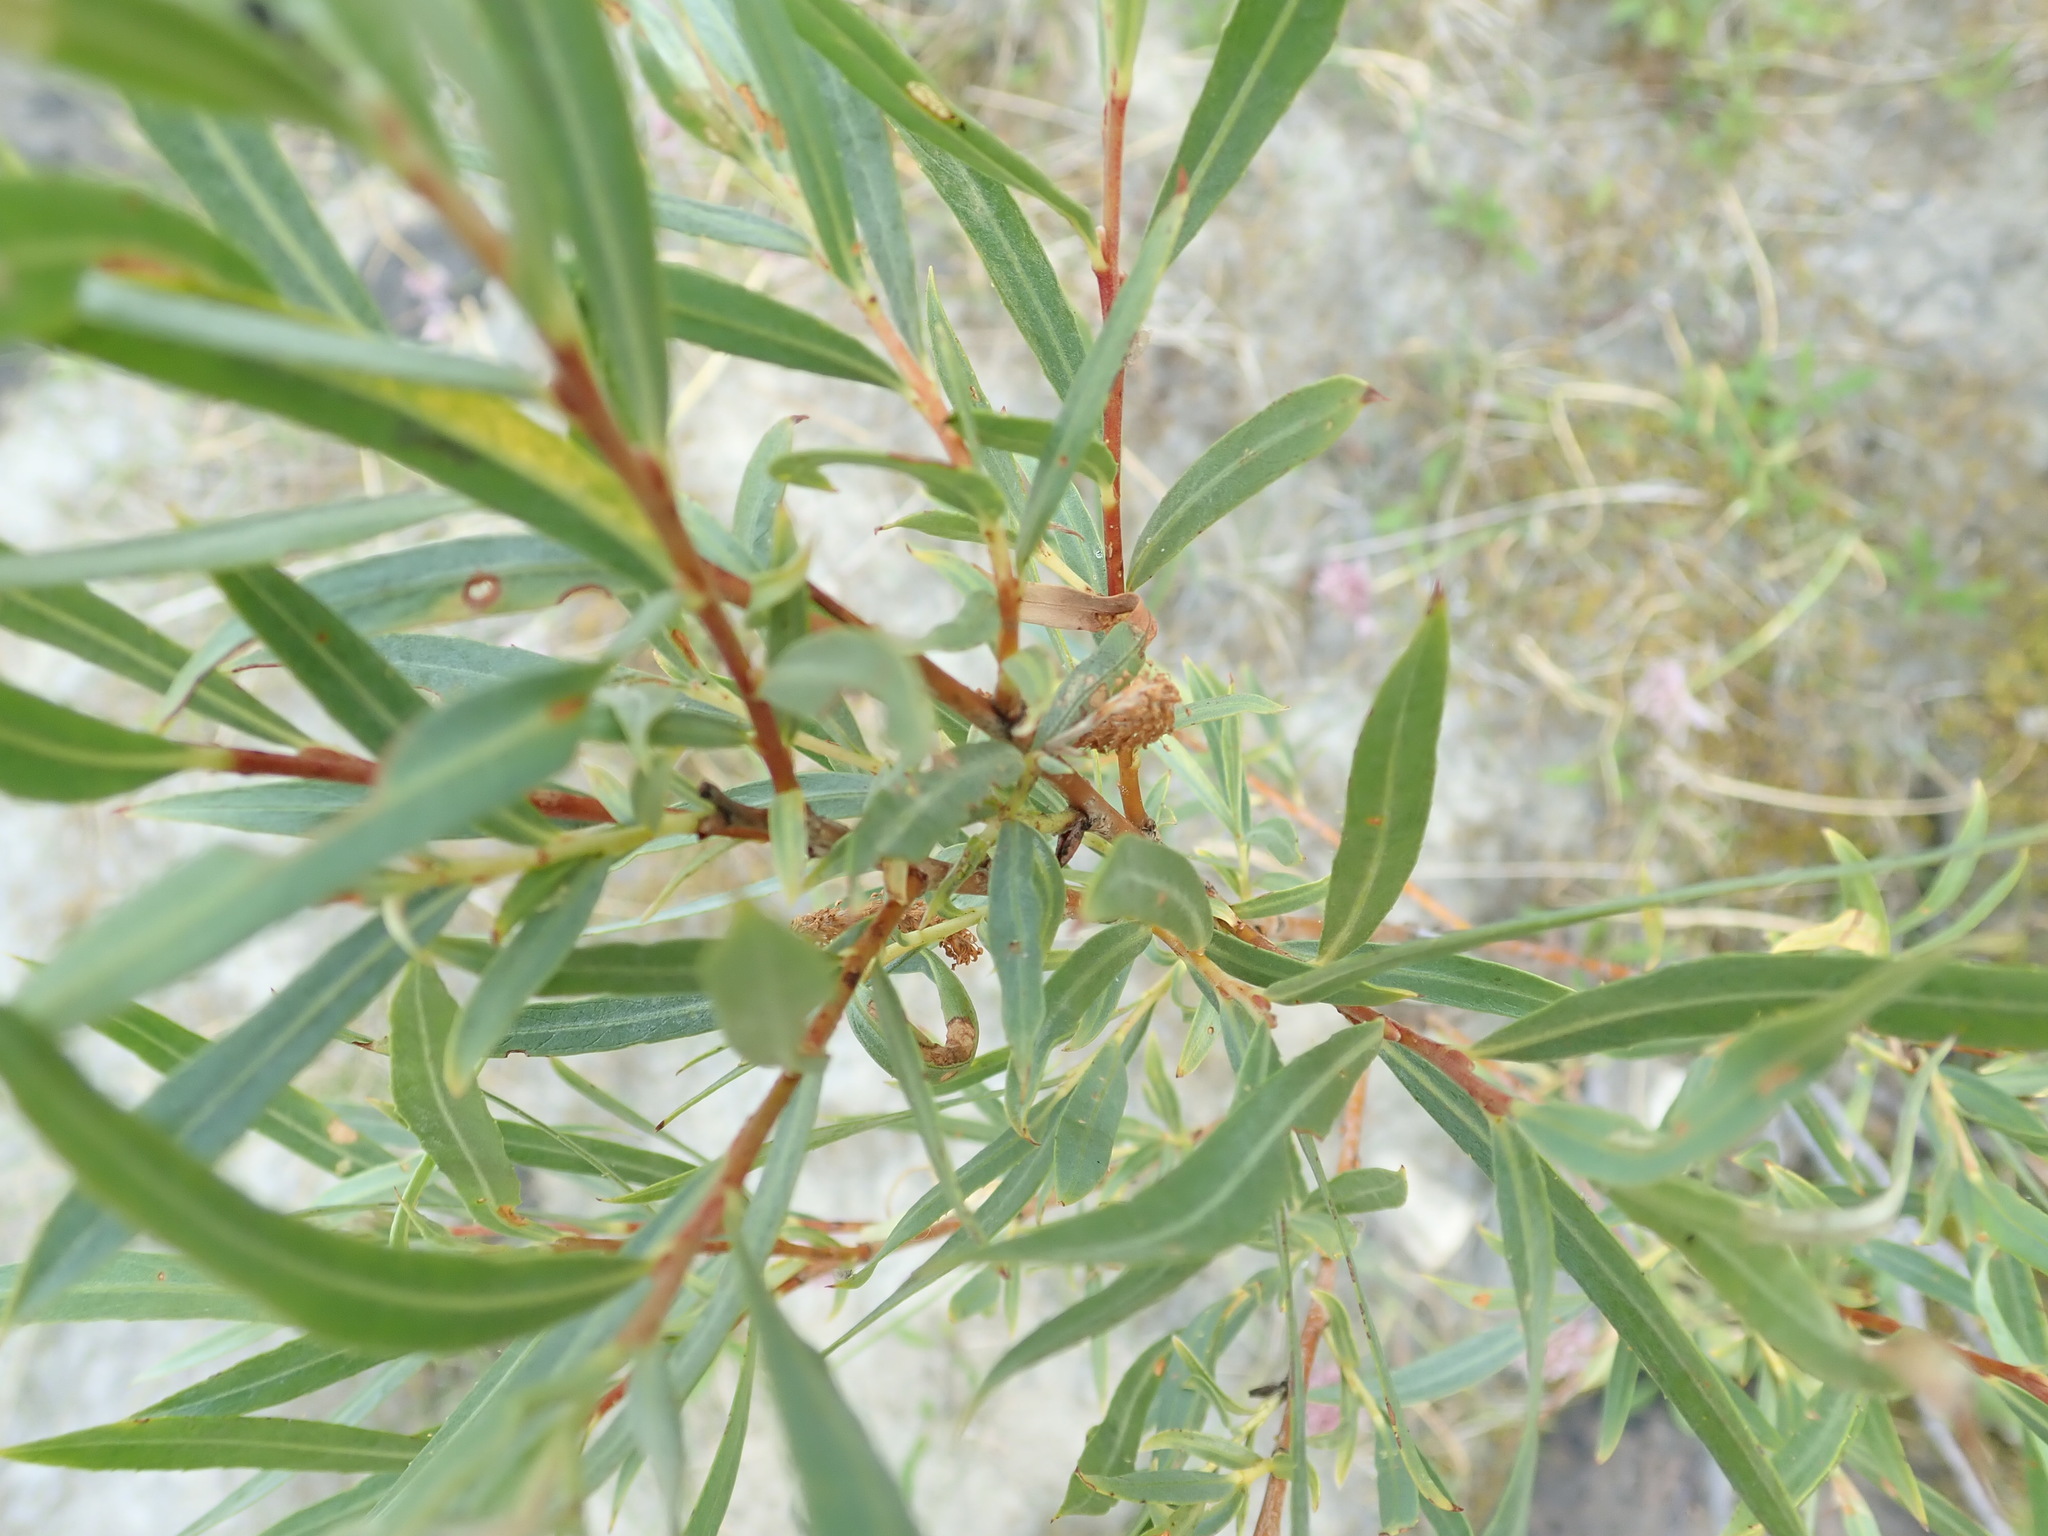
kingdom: Plantae
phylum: Tracheophyta
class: Magnoliopsida
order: Malpighiales
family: Salicaceae
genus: Salix
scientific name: Salix interior
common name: Sandbar willow
